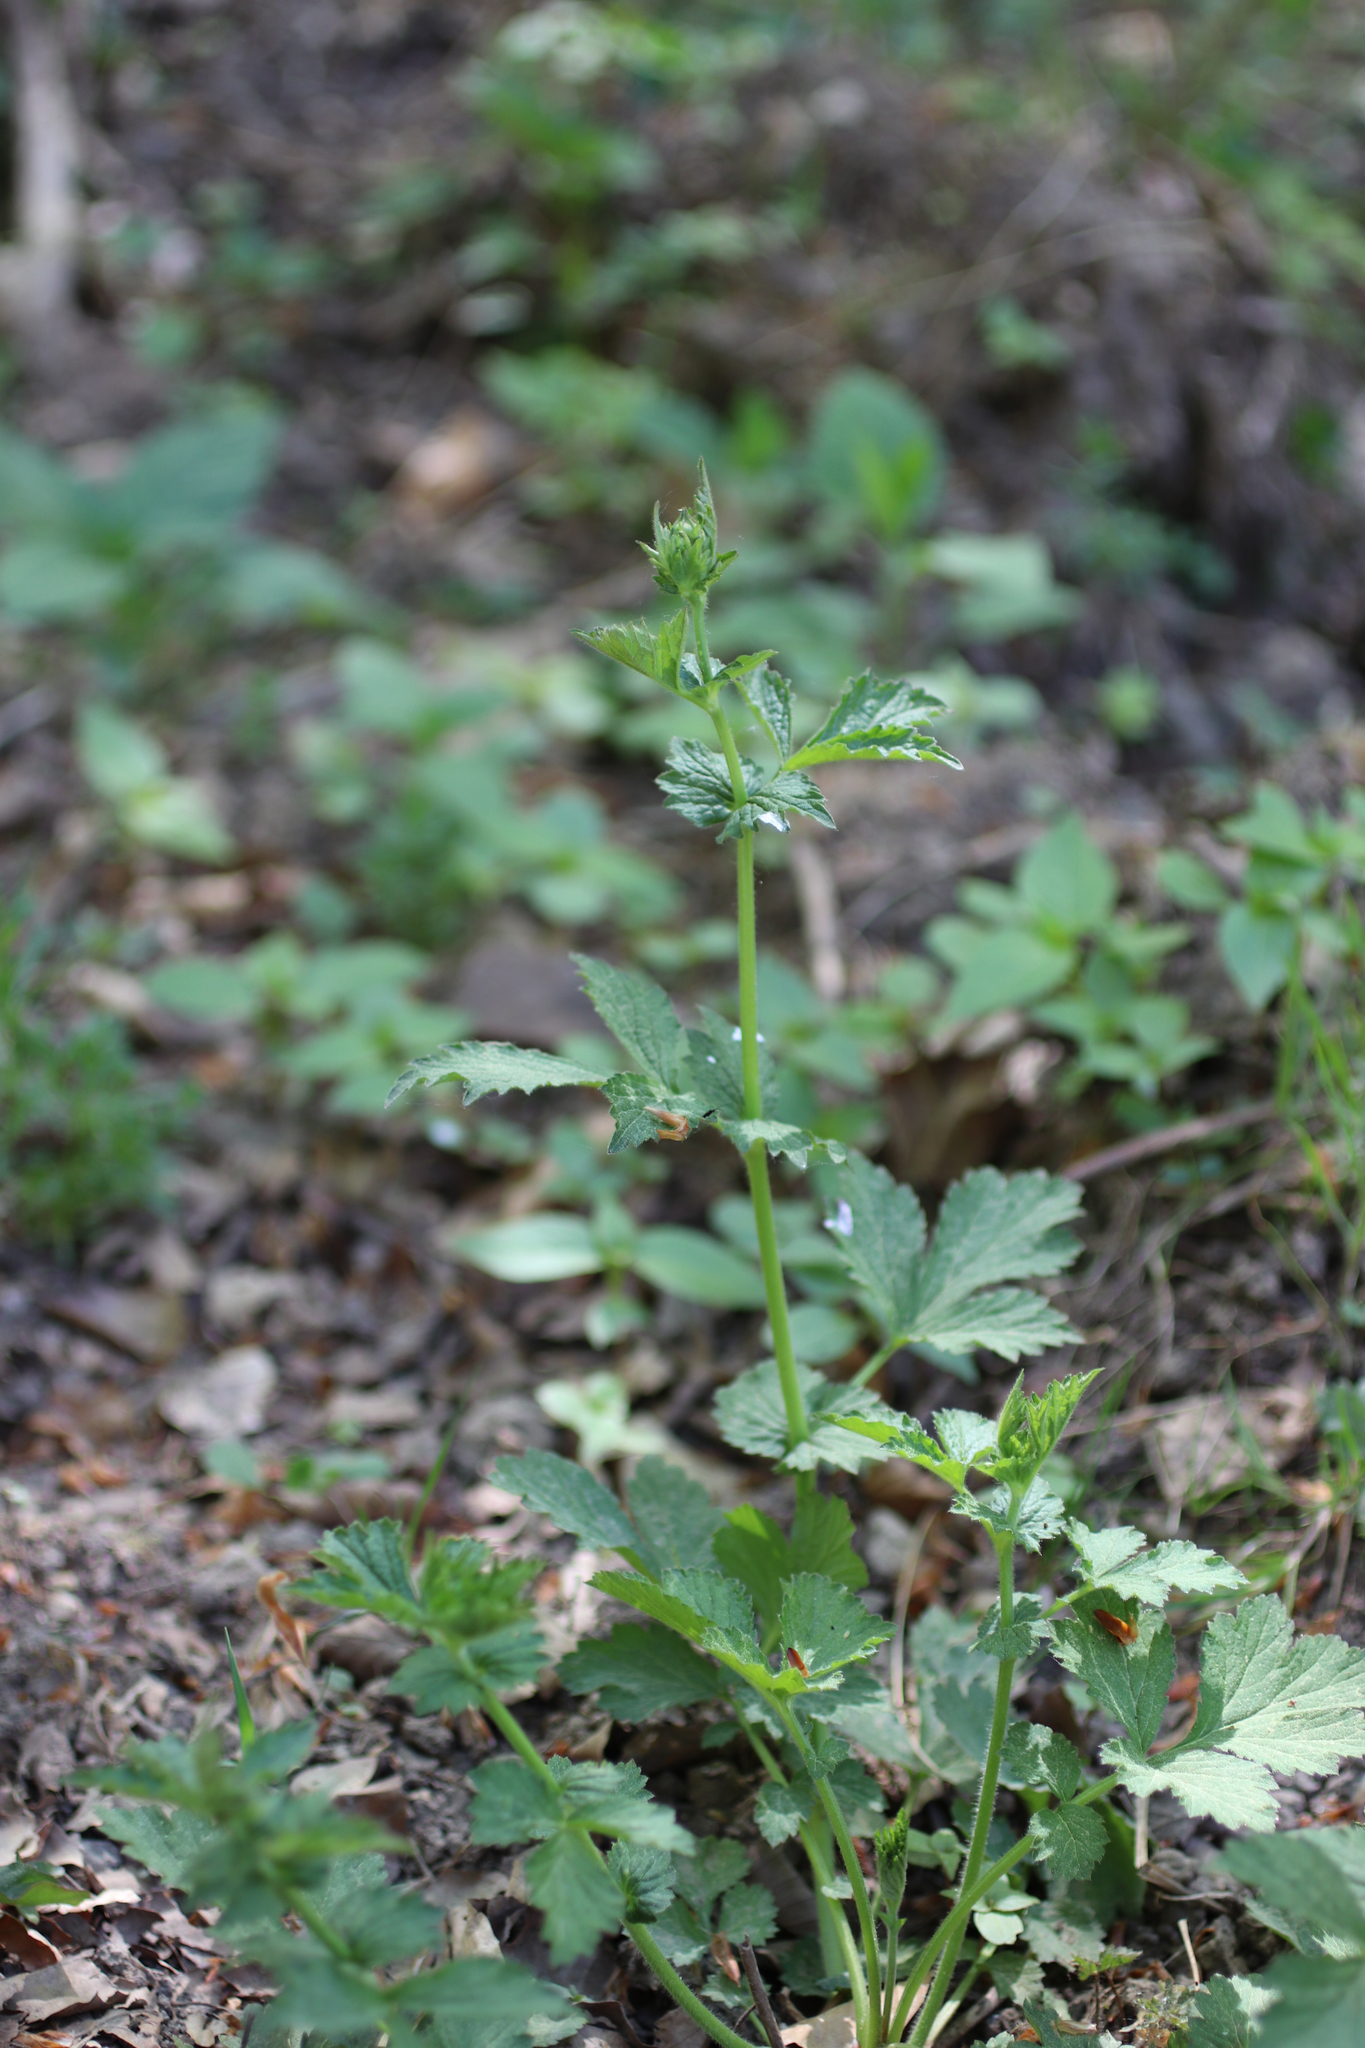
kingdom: Plantae
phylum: Tracheophyta
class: Magnoliopsida
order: Rosales
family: Rosaceae
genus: Geum
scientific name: Geum urbanum
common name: Wood avens
